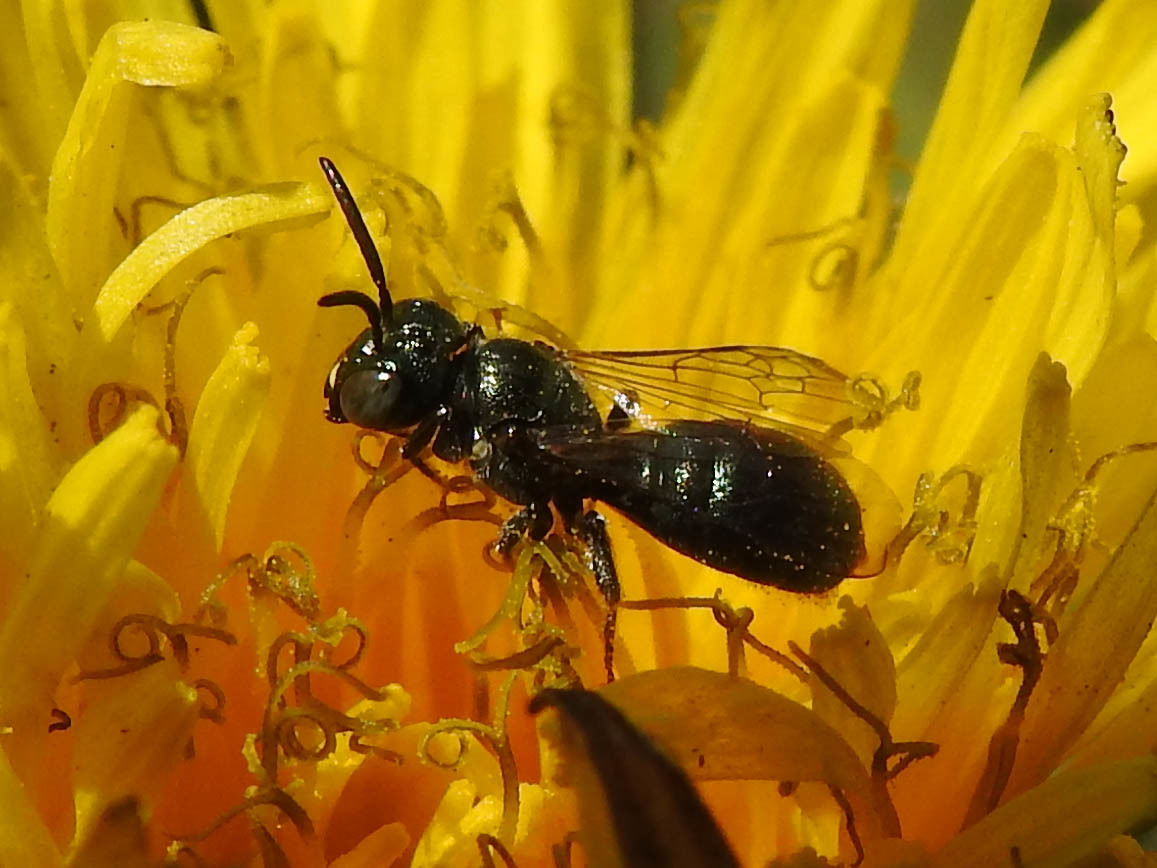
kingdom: Animalia
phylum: Arthropoda
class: Insecta
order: Hymenoptera
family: Apidae
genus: Zadontomerus
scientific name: Zadontomerus
